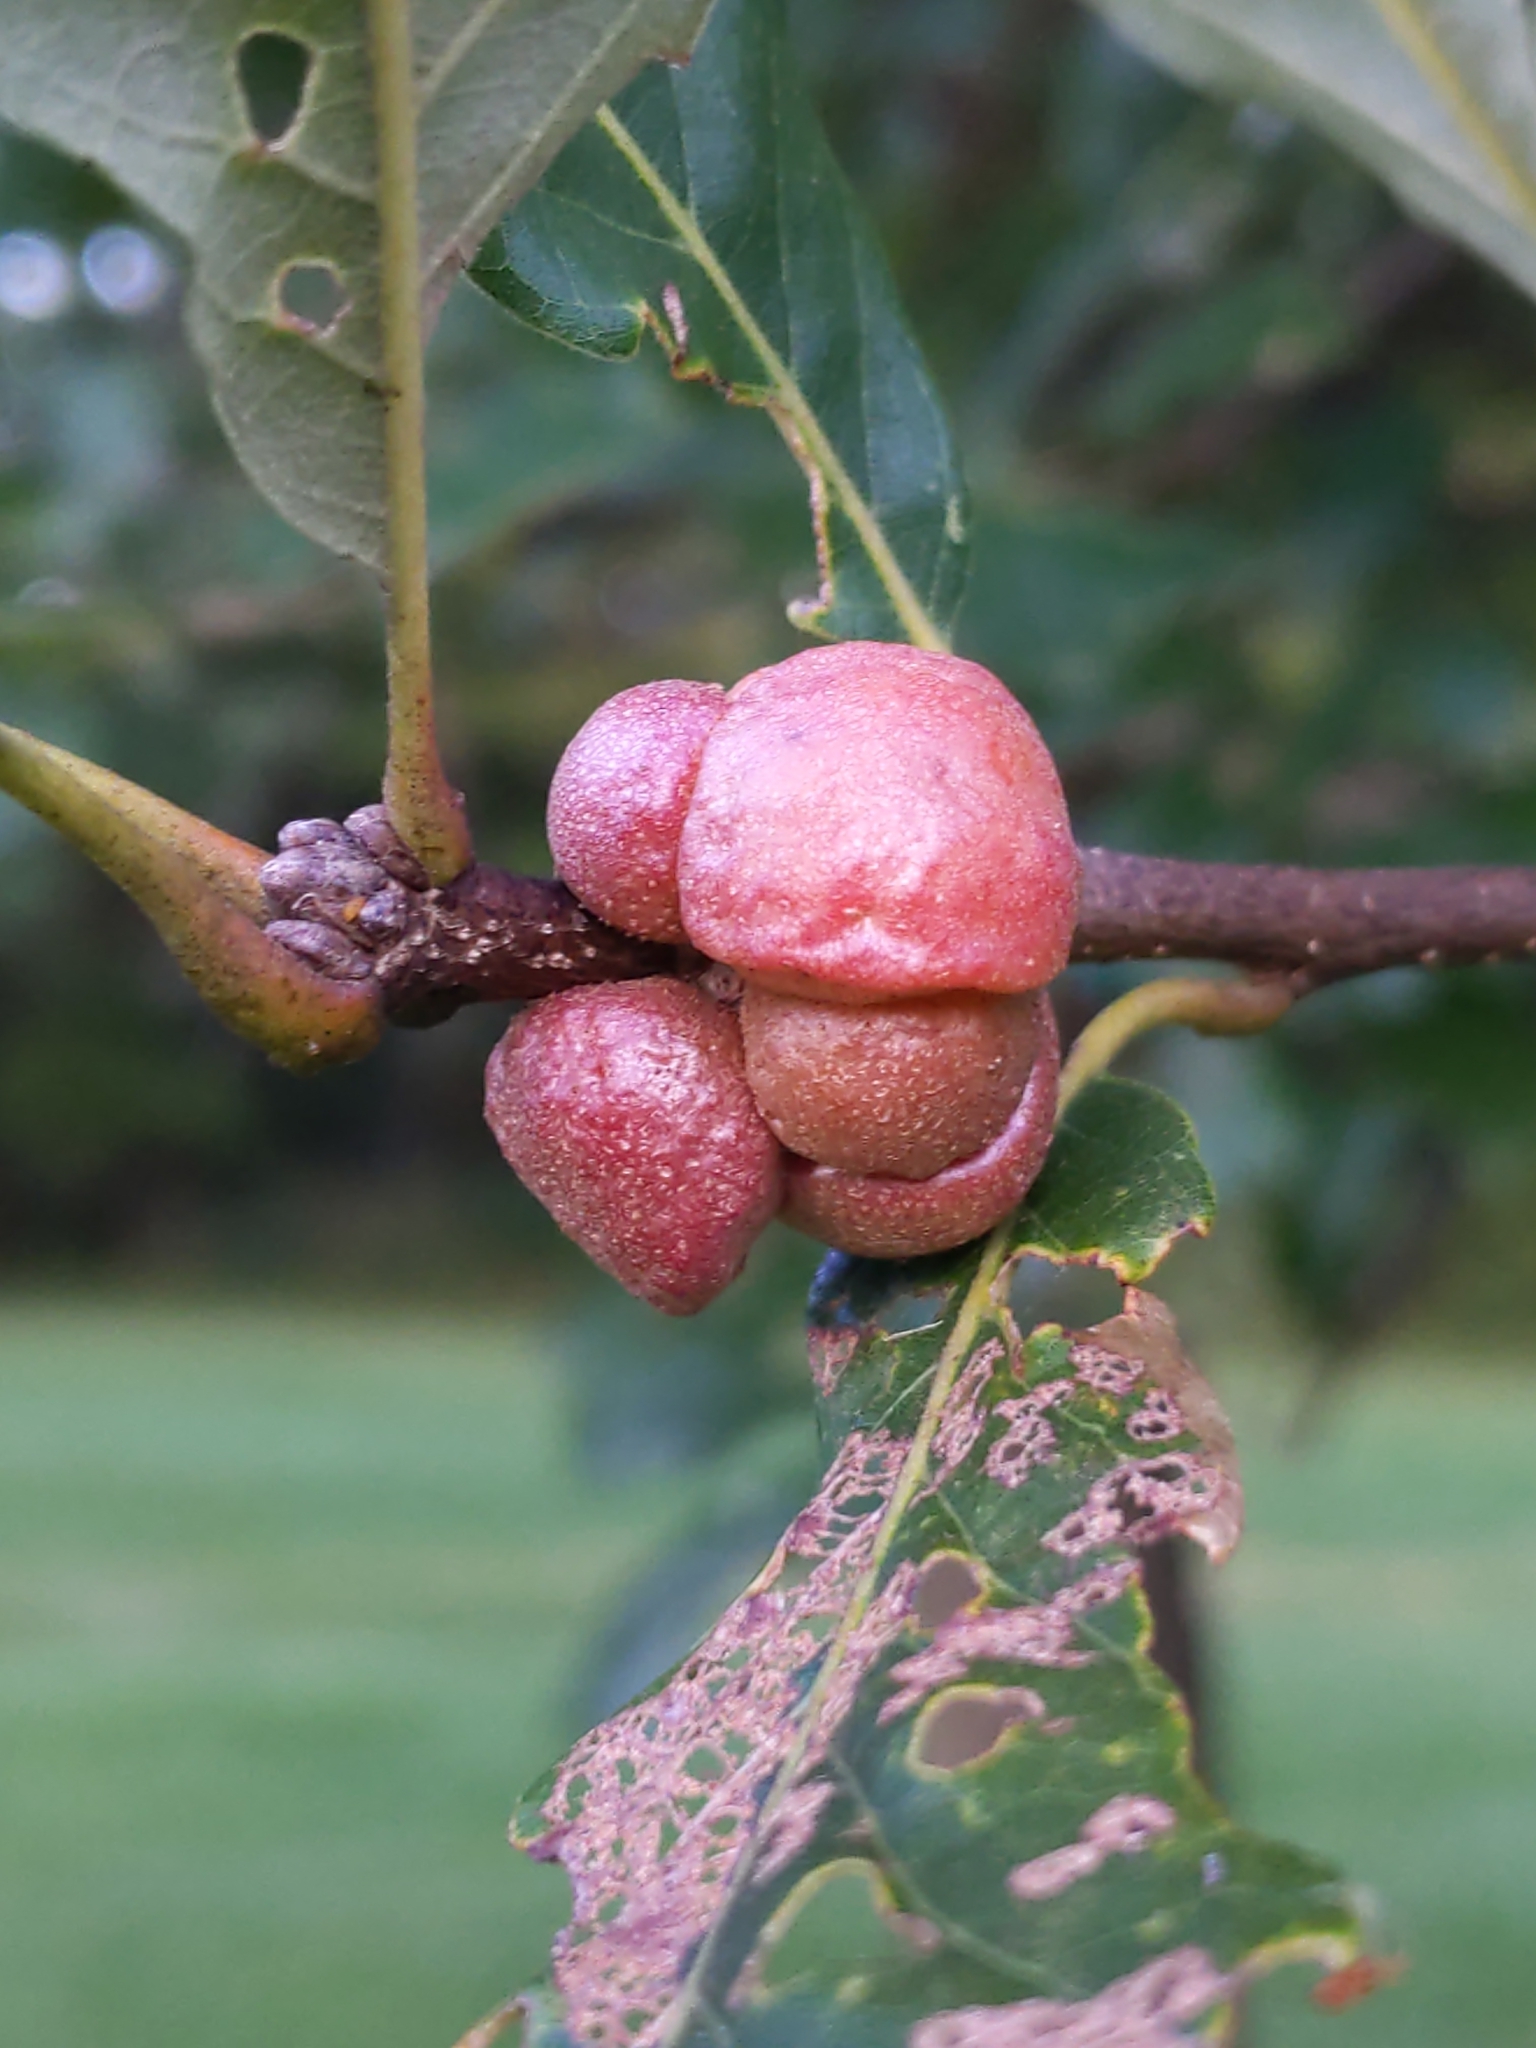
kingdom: Animalia
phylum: Arthropoda
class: Insecta
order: Hymenoptera
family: Cynipidae
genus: Andricus
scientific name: Andricus
